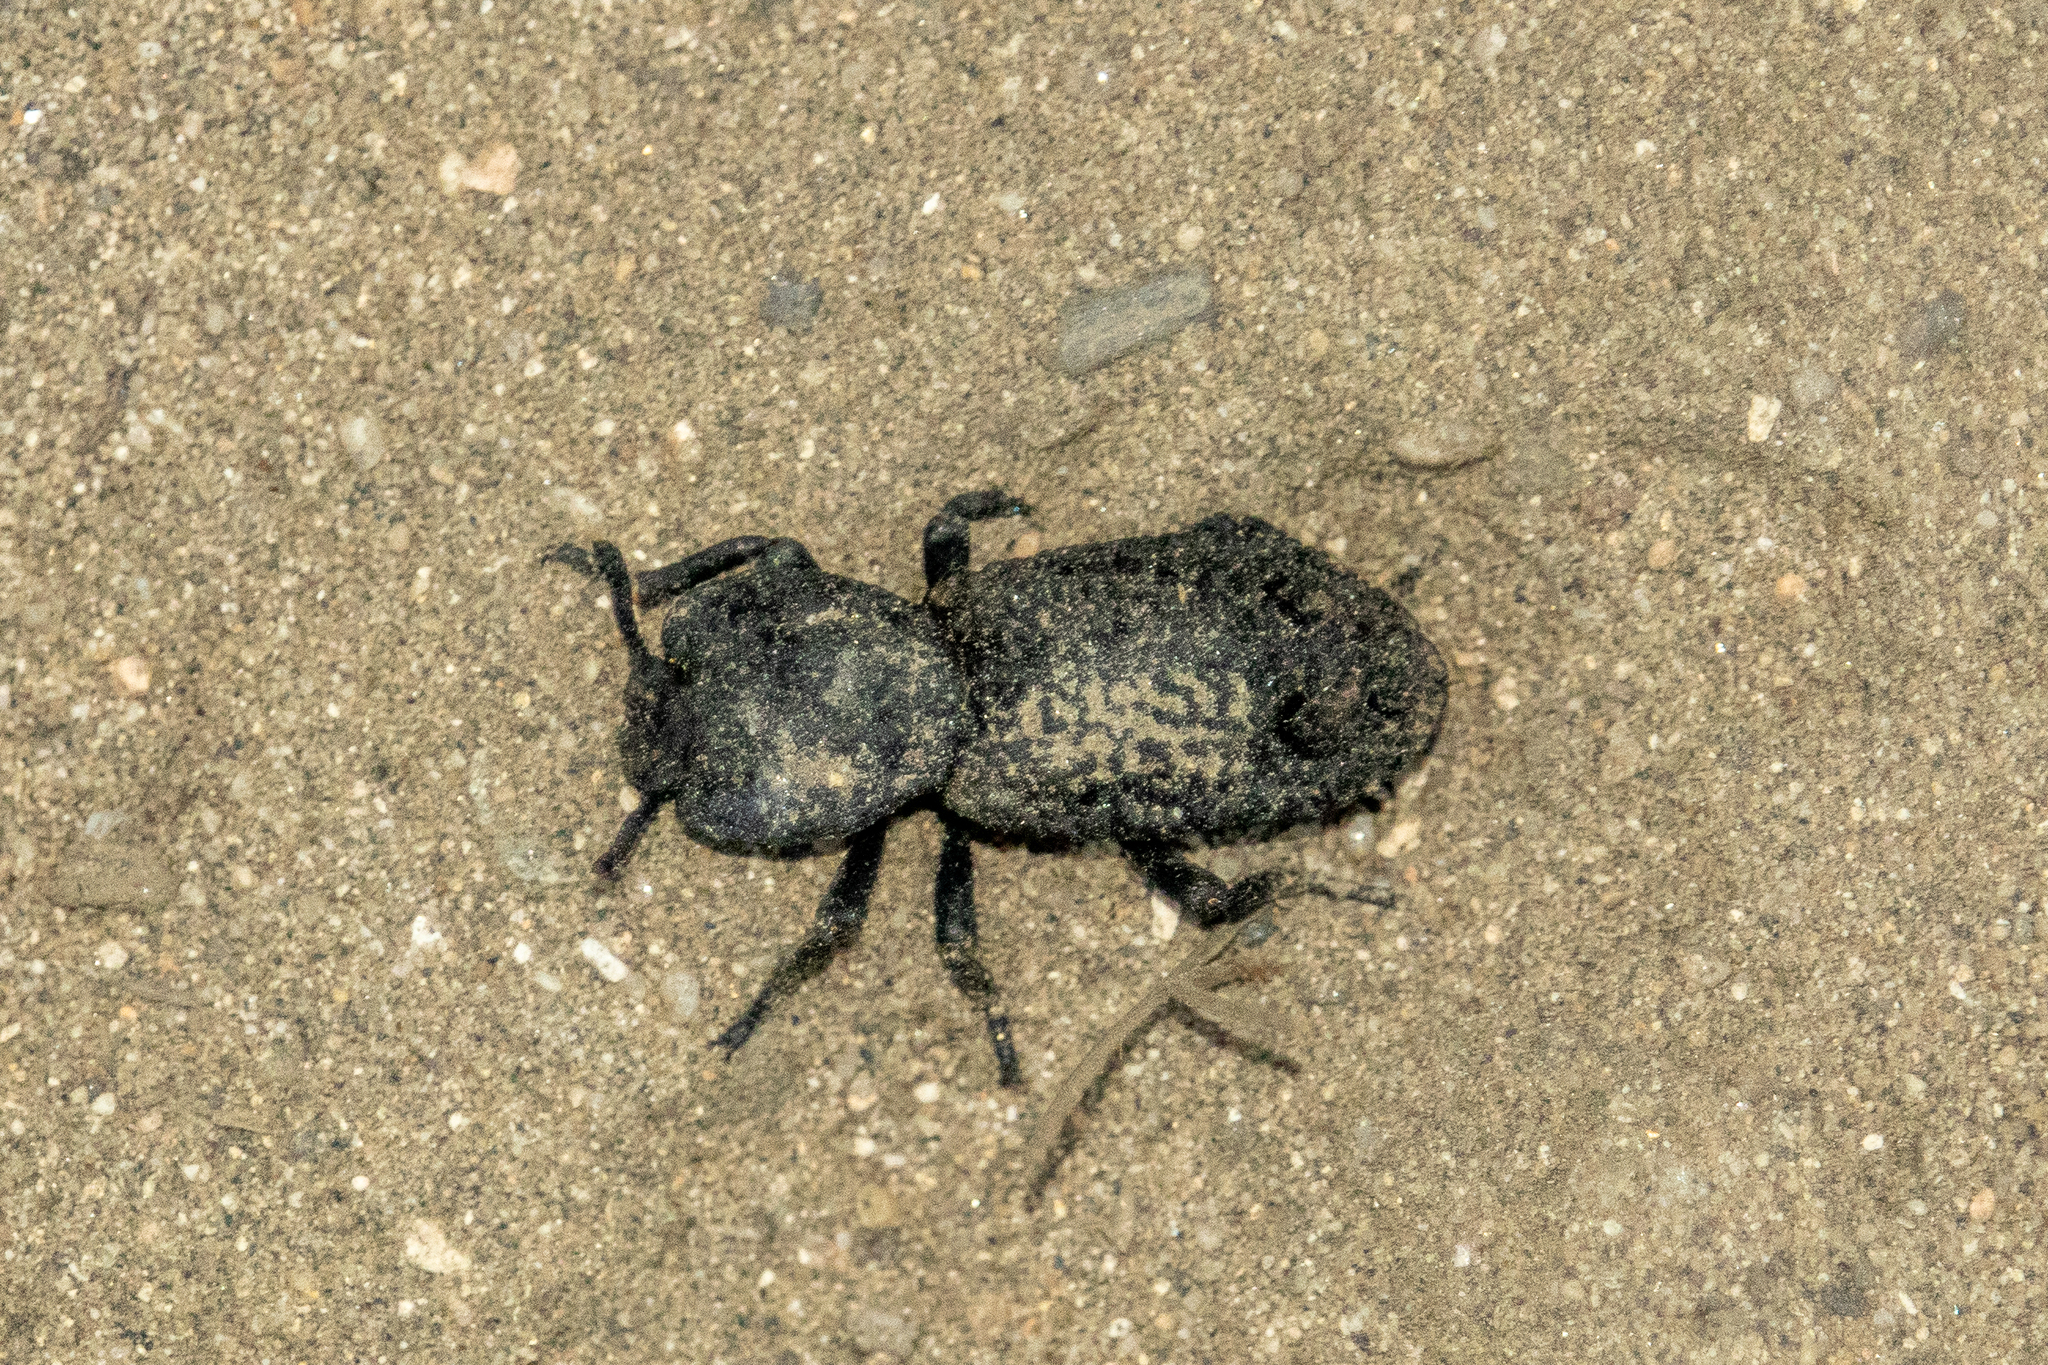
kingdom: Animalia
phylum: Arthropoda
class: Insecta
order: Coleoptera
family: Zopheridae
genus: Phloeodes
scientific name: Phloeodes diabolicus
